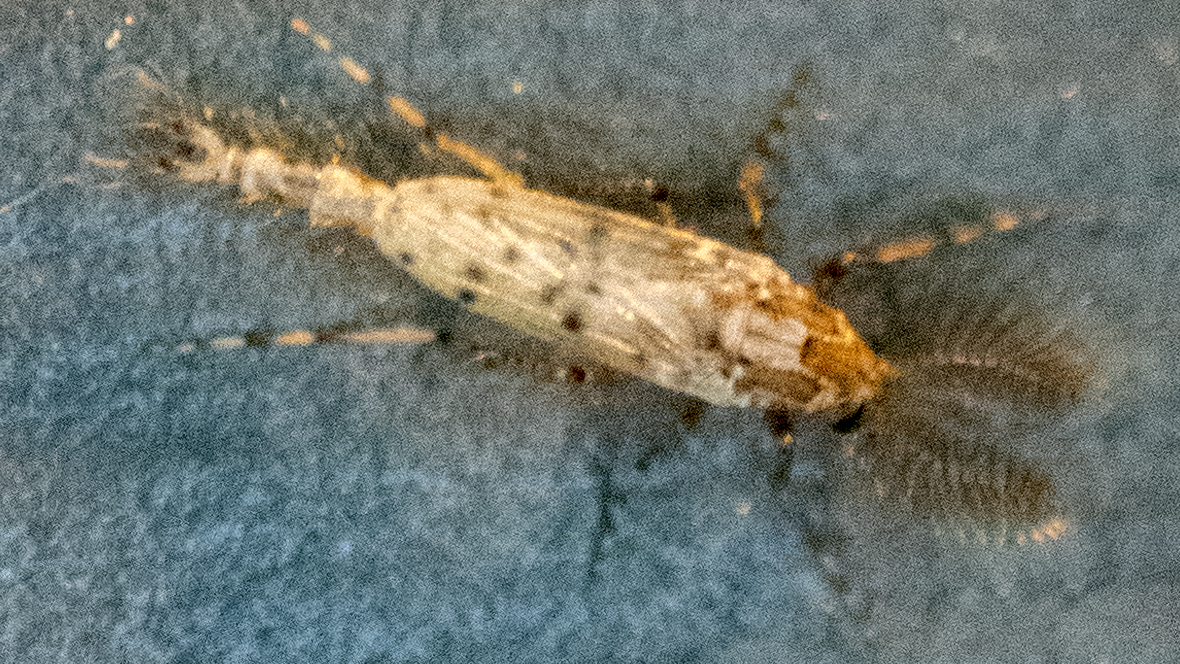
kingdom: Animalia
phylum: Arthropoda
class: Insecta
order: Diptera
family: Chaoboridae
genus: Chaoborus
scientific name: Chaoborus punctipennis
